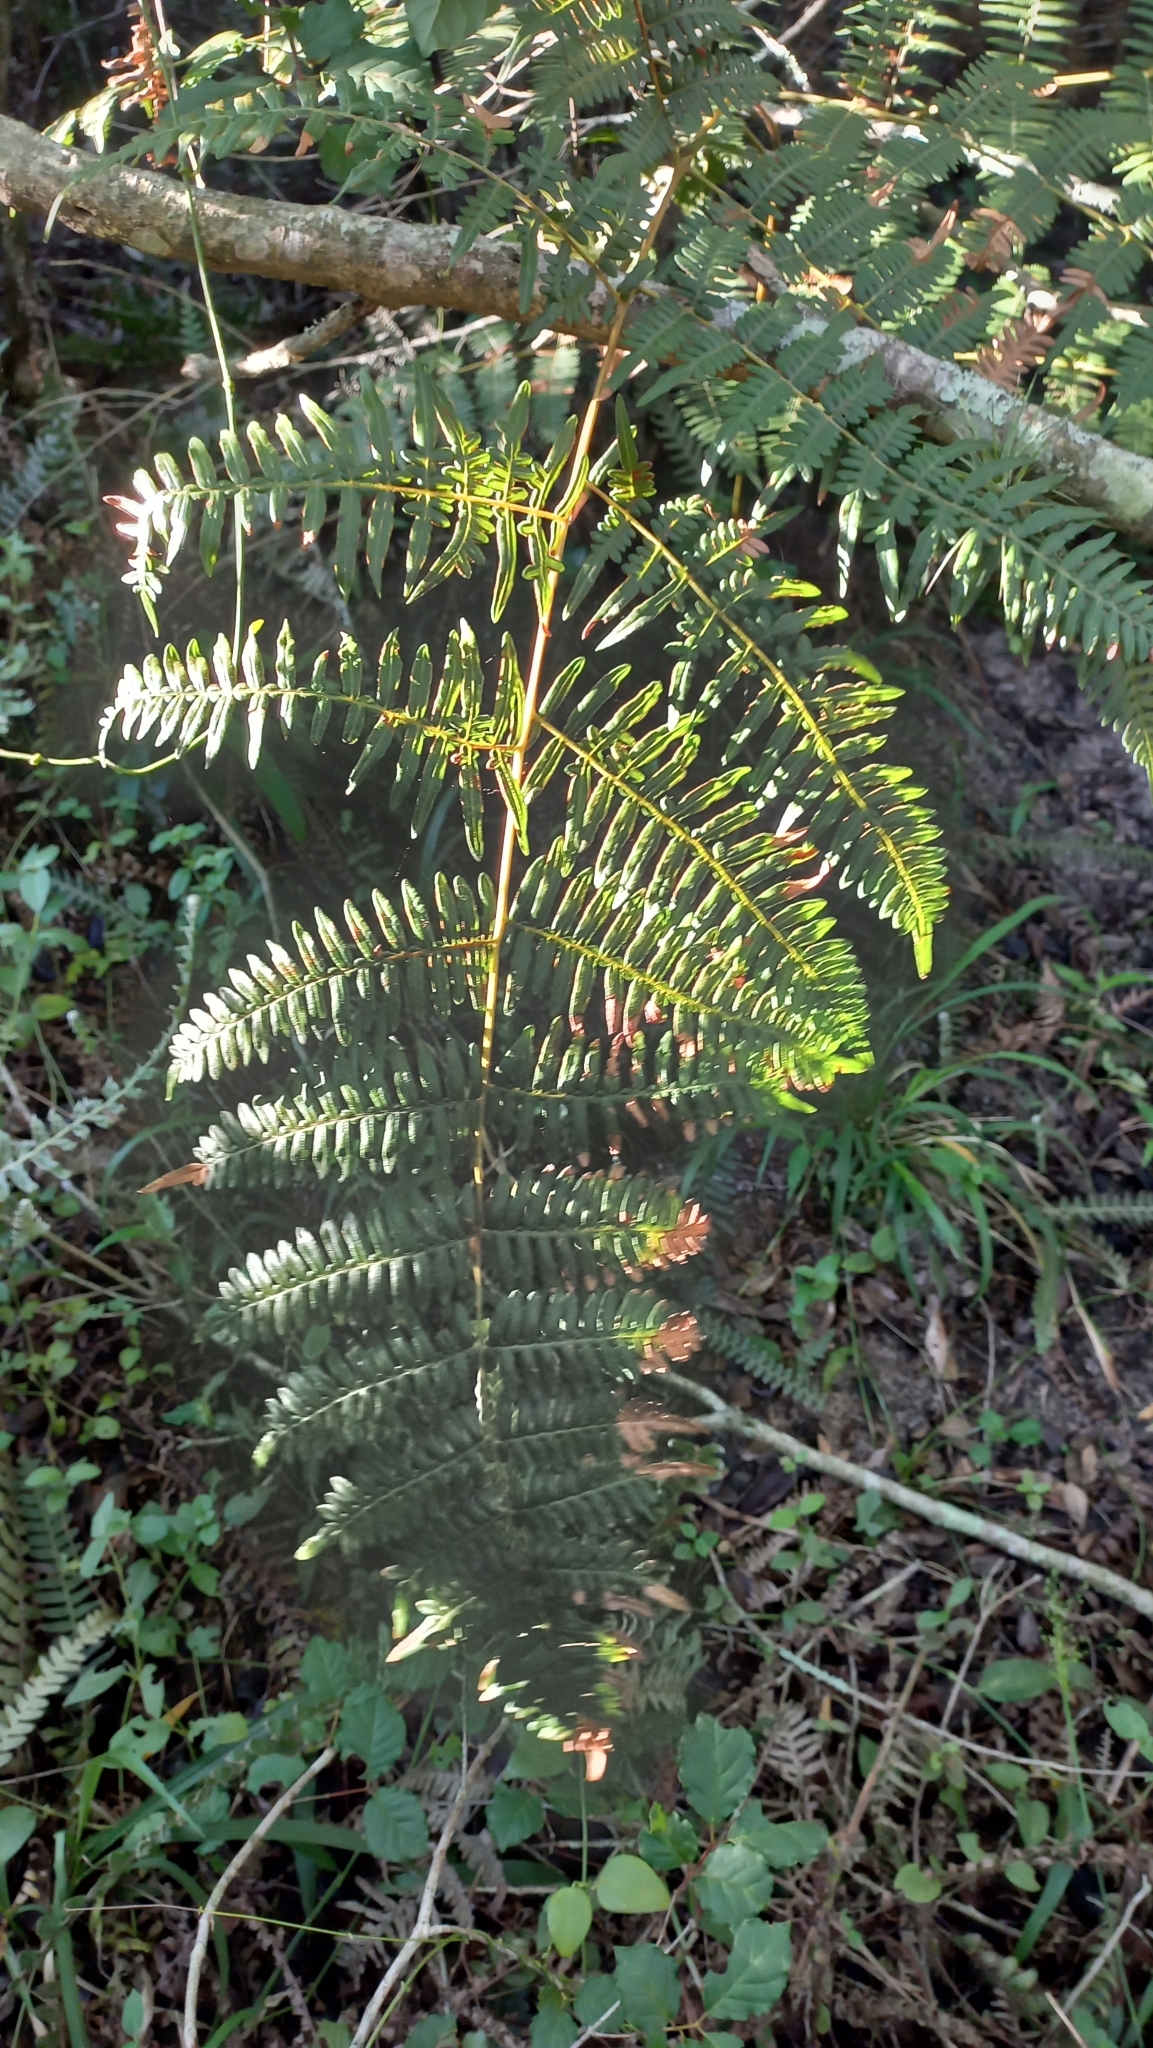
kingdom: Plantae
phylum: Tracheophyta
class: Polypodiopsida
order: Polypodiales
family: Dennstaedtiaceae
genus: Pteridium
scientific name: Pteridium esculentum
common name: Bracken fern
